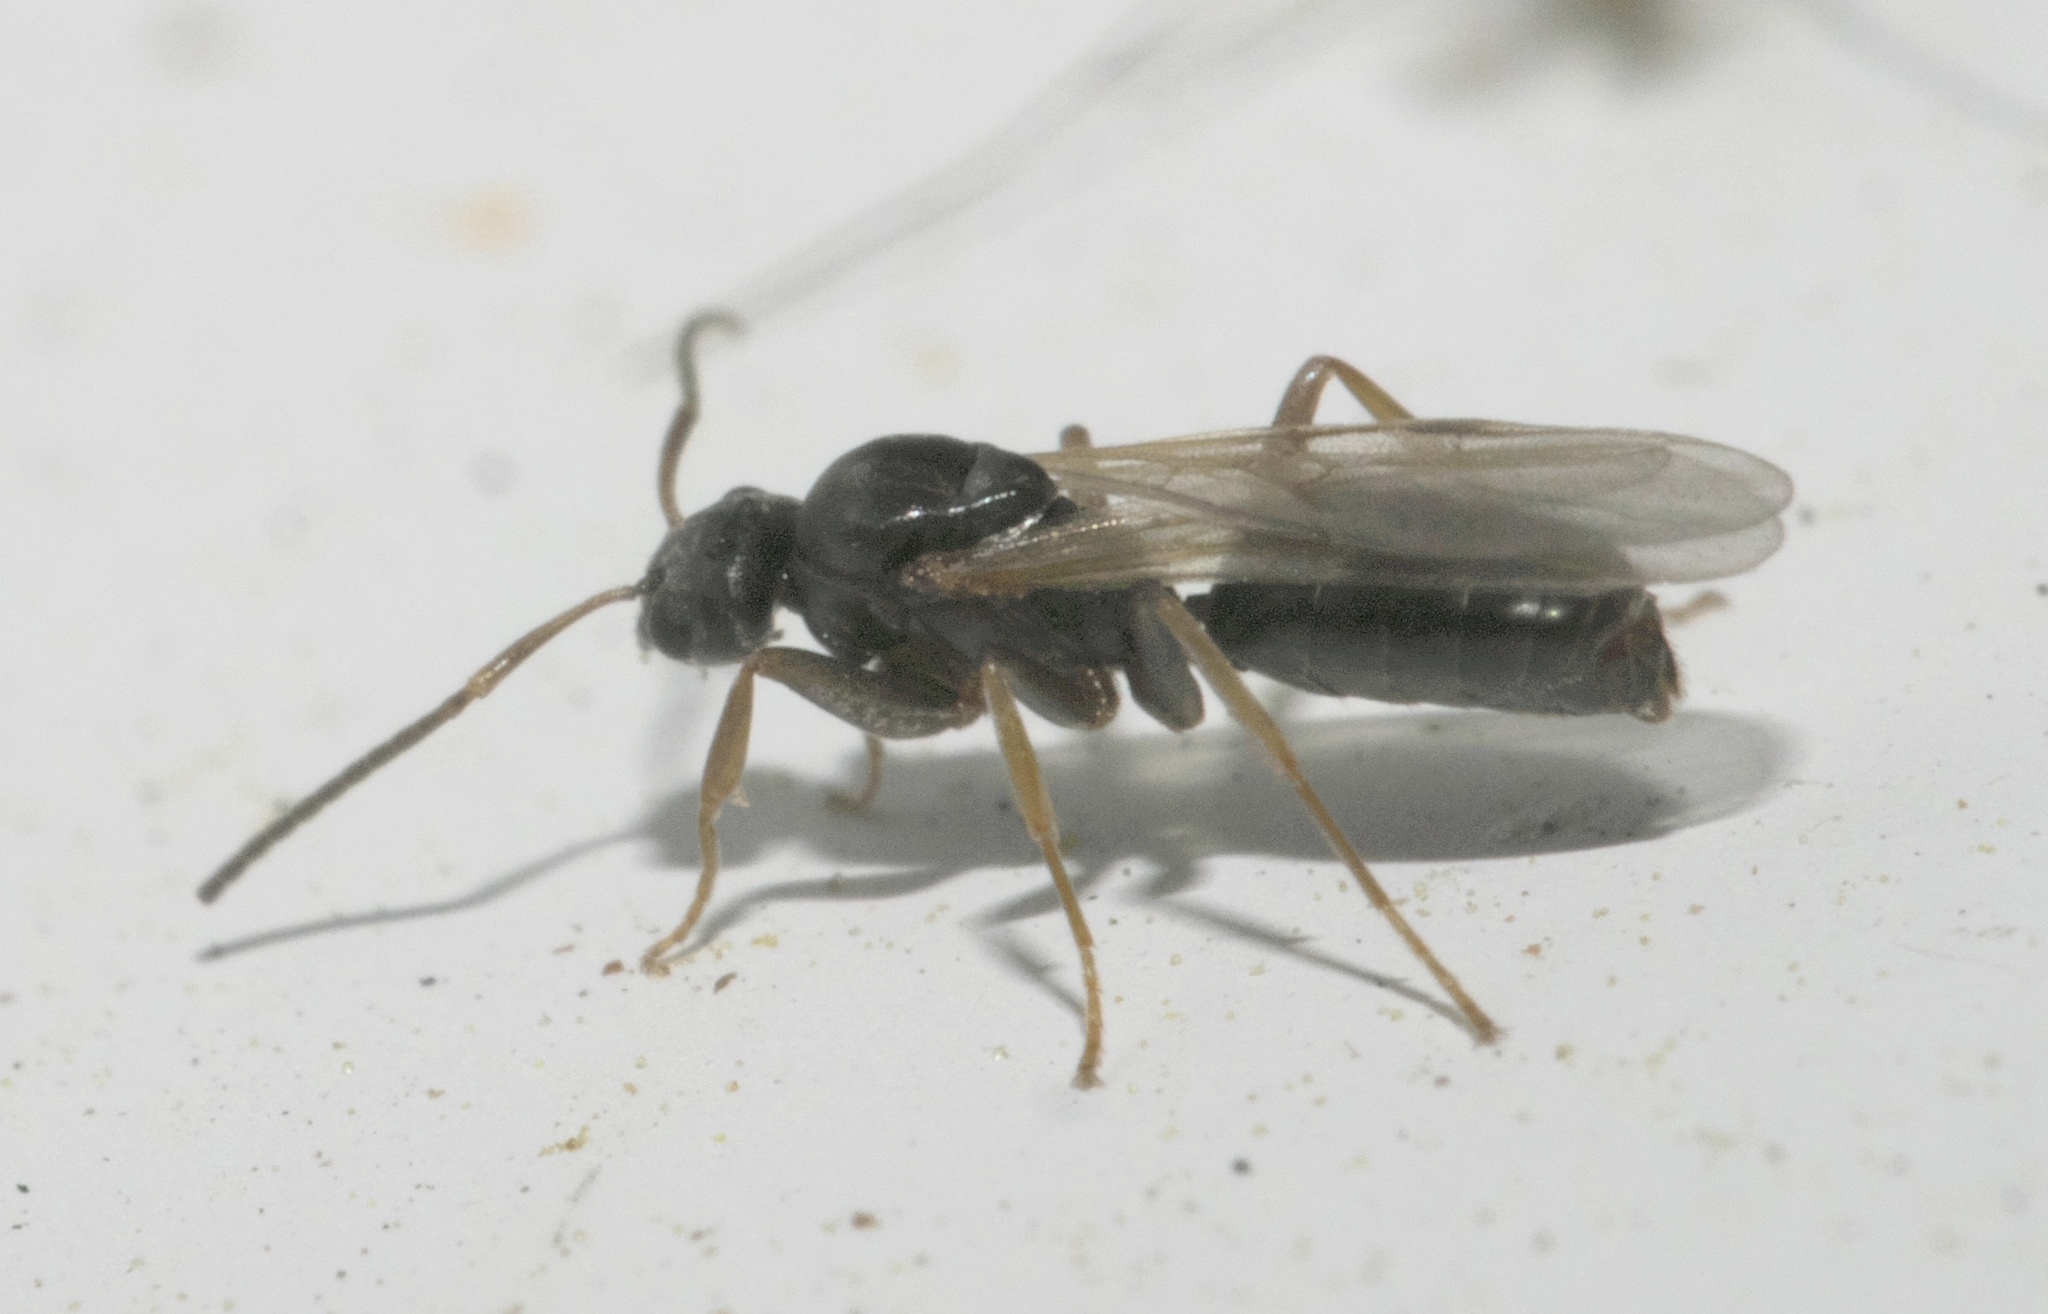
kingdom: Animalia
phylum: Arthropoda
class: Insecta
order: Hymenoptera
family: Formicidae
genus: Tapinoma
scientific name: Tapinoma sessile
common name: Odorous house ant
